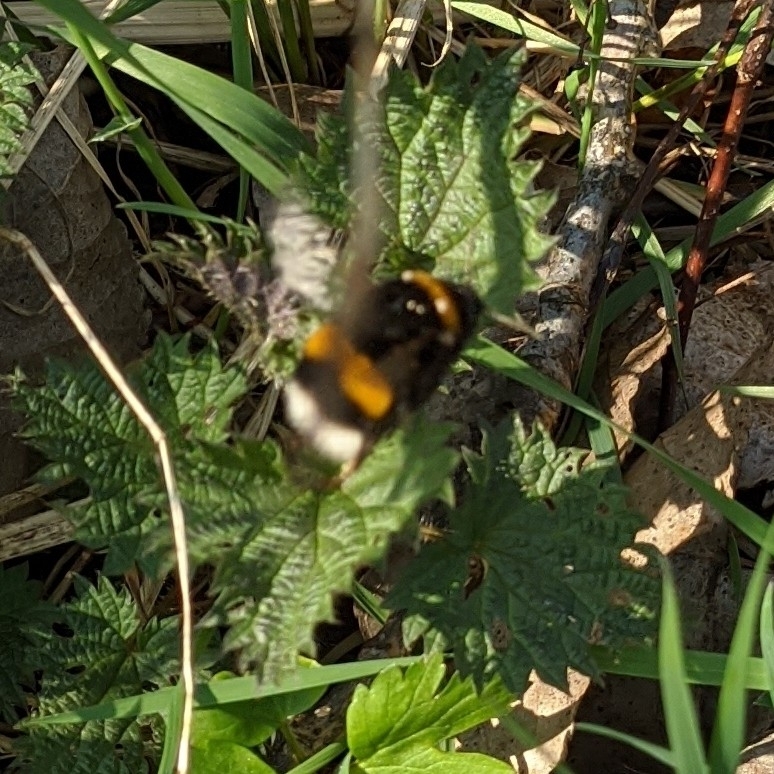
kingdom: Animalia
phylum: Arthropoda
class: Insecta
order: Hymenoptera
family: Apidae
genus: Bombus
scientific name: Bombus
